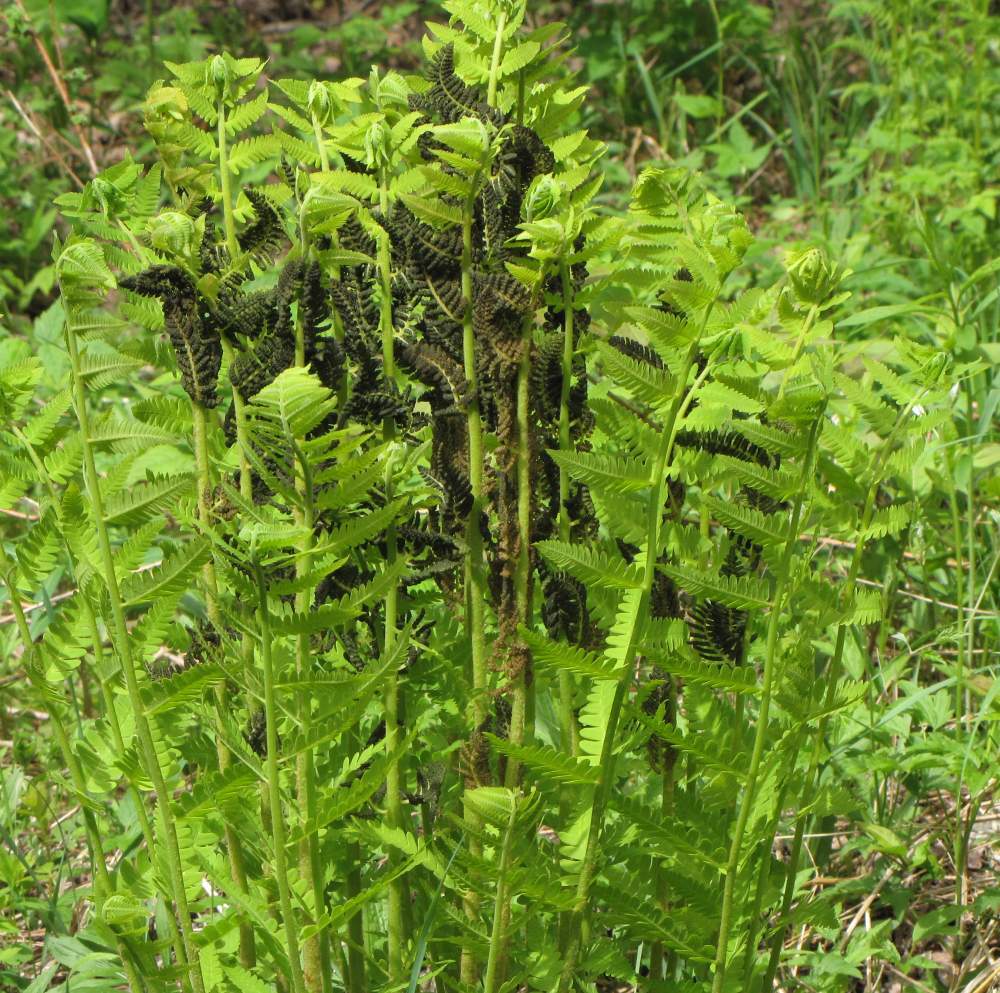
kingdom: Plantae
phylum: Tracheophyta
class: Polypodiopsida
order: Osmundales
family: Osmundaceae
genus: Claytosmunda
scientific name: Claytosmunda claytoniana
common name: Clayton's fern
